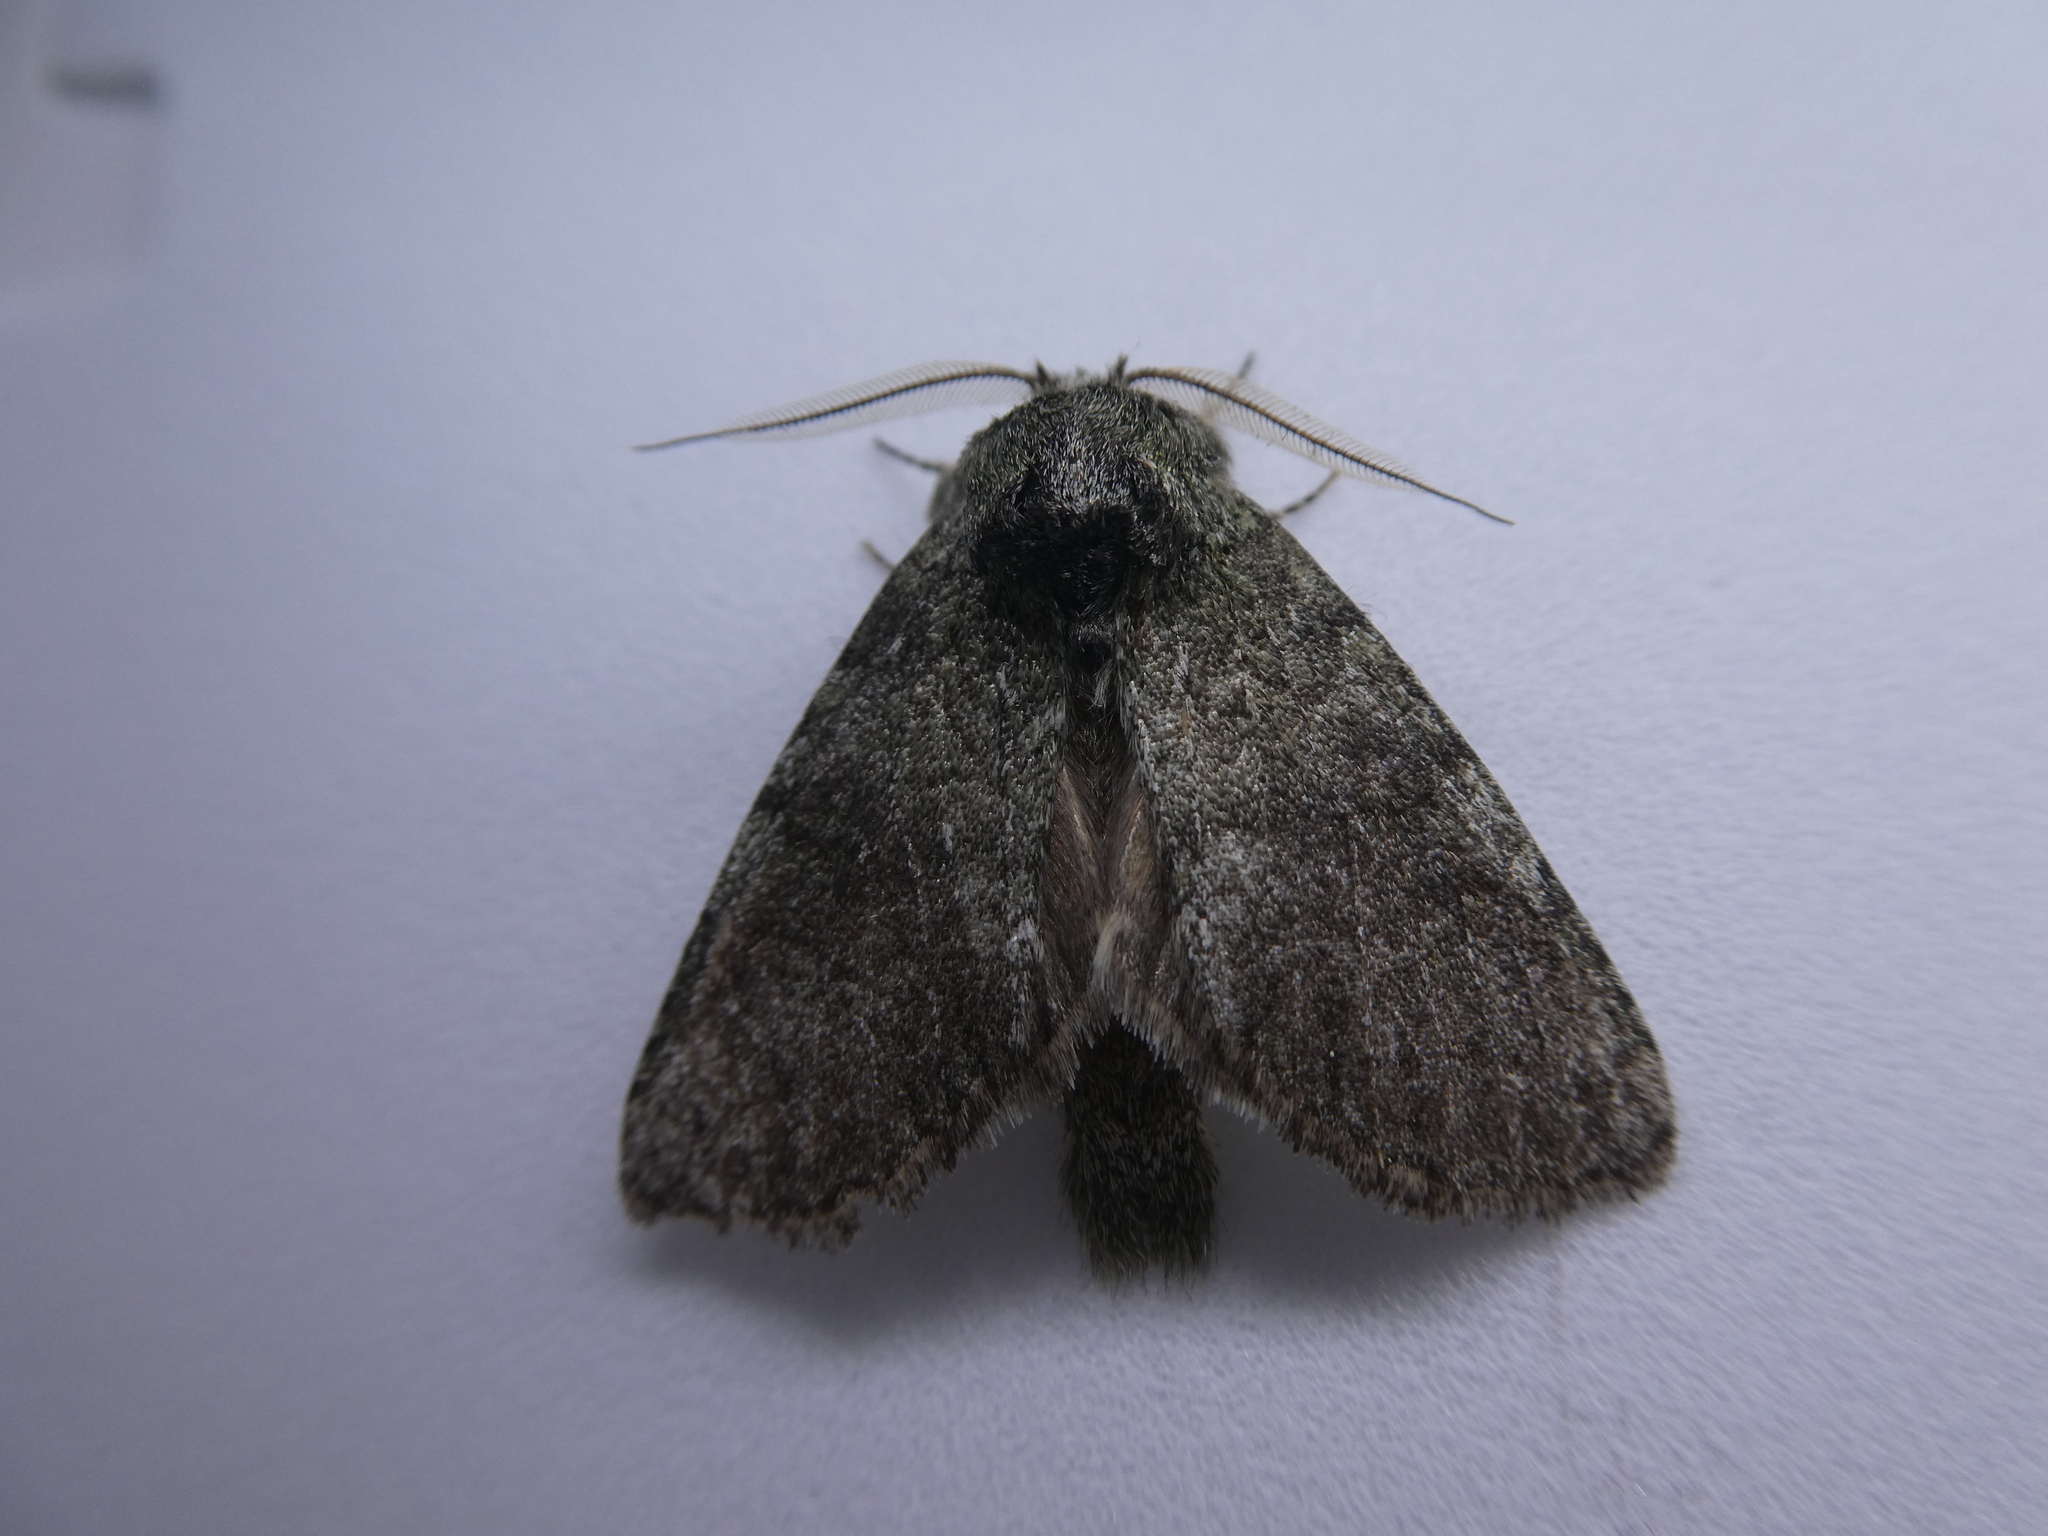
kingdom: Animalia
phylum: Arthropoda
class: Insecta
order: Lepidoptera
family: Notodontidae
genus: Disphragis
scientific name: Disphragis Cecrita guttivitta
